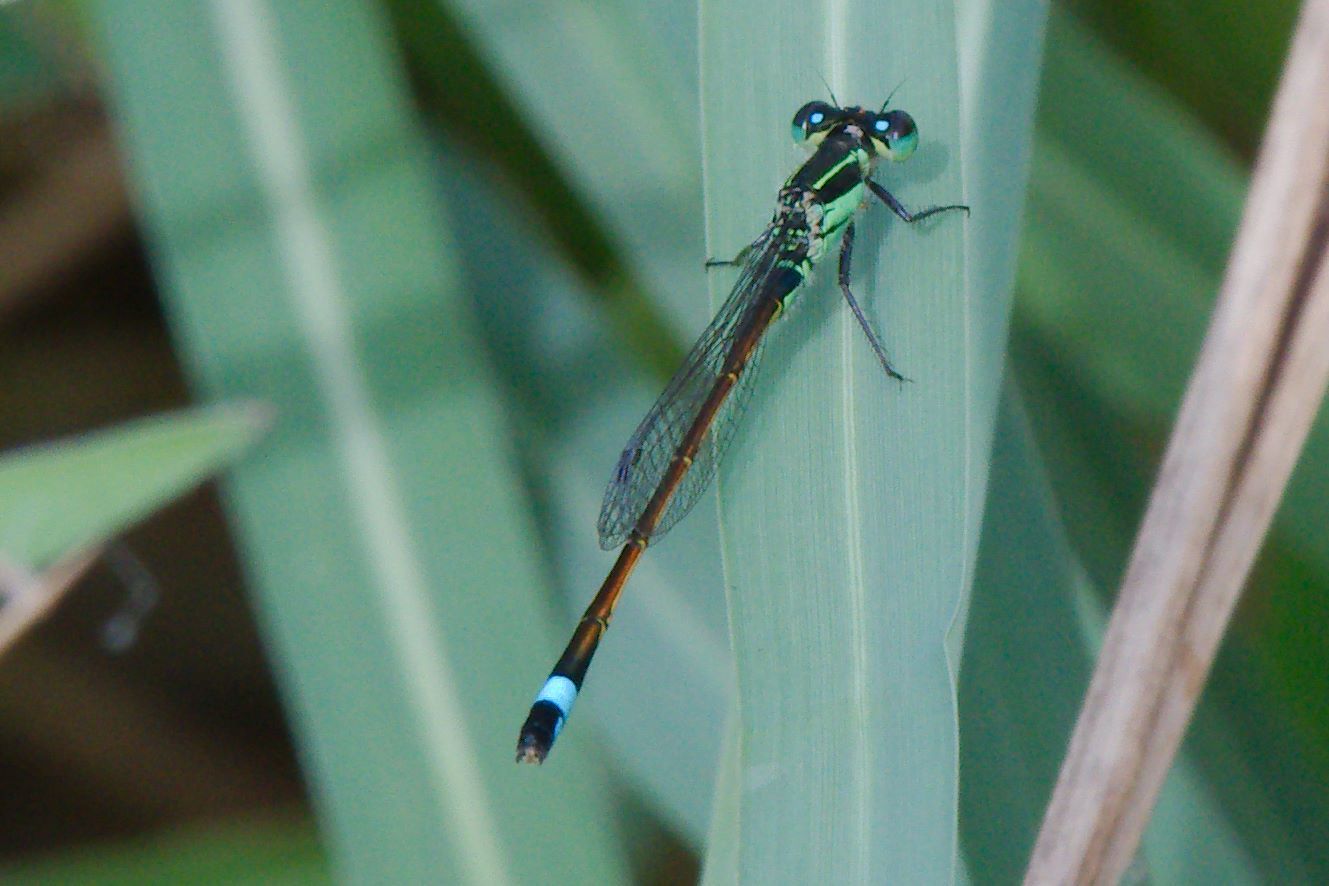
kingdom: Animalia
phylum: Arthropoda
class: Insecta
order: Odonata
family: Coenagrionidae
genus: Ischnura
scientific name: Ischnura ramburii
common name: Rambur's forktail
